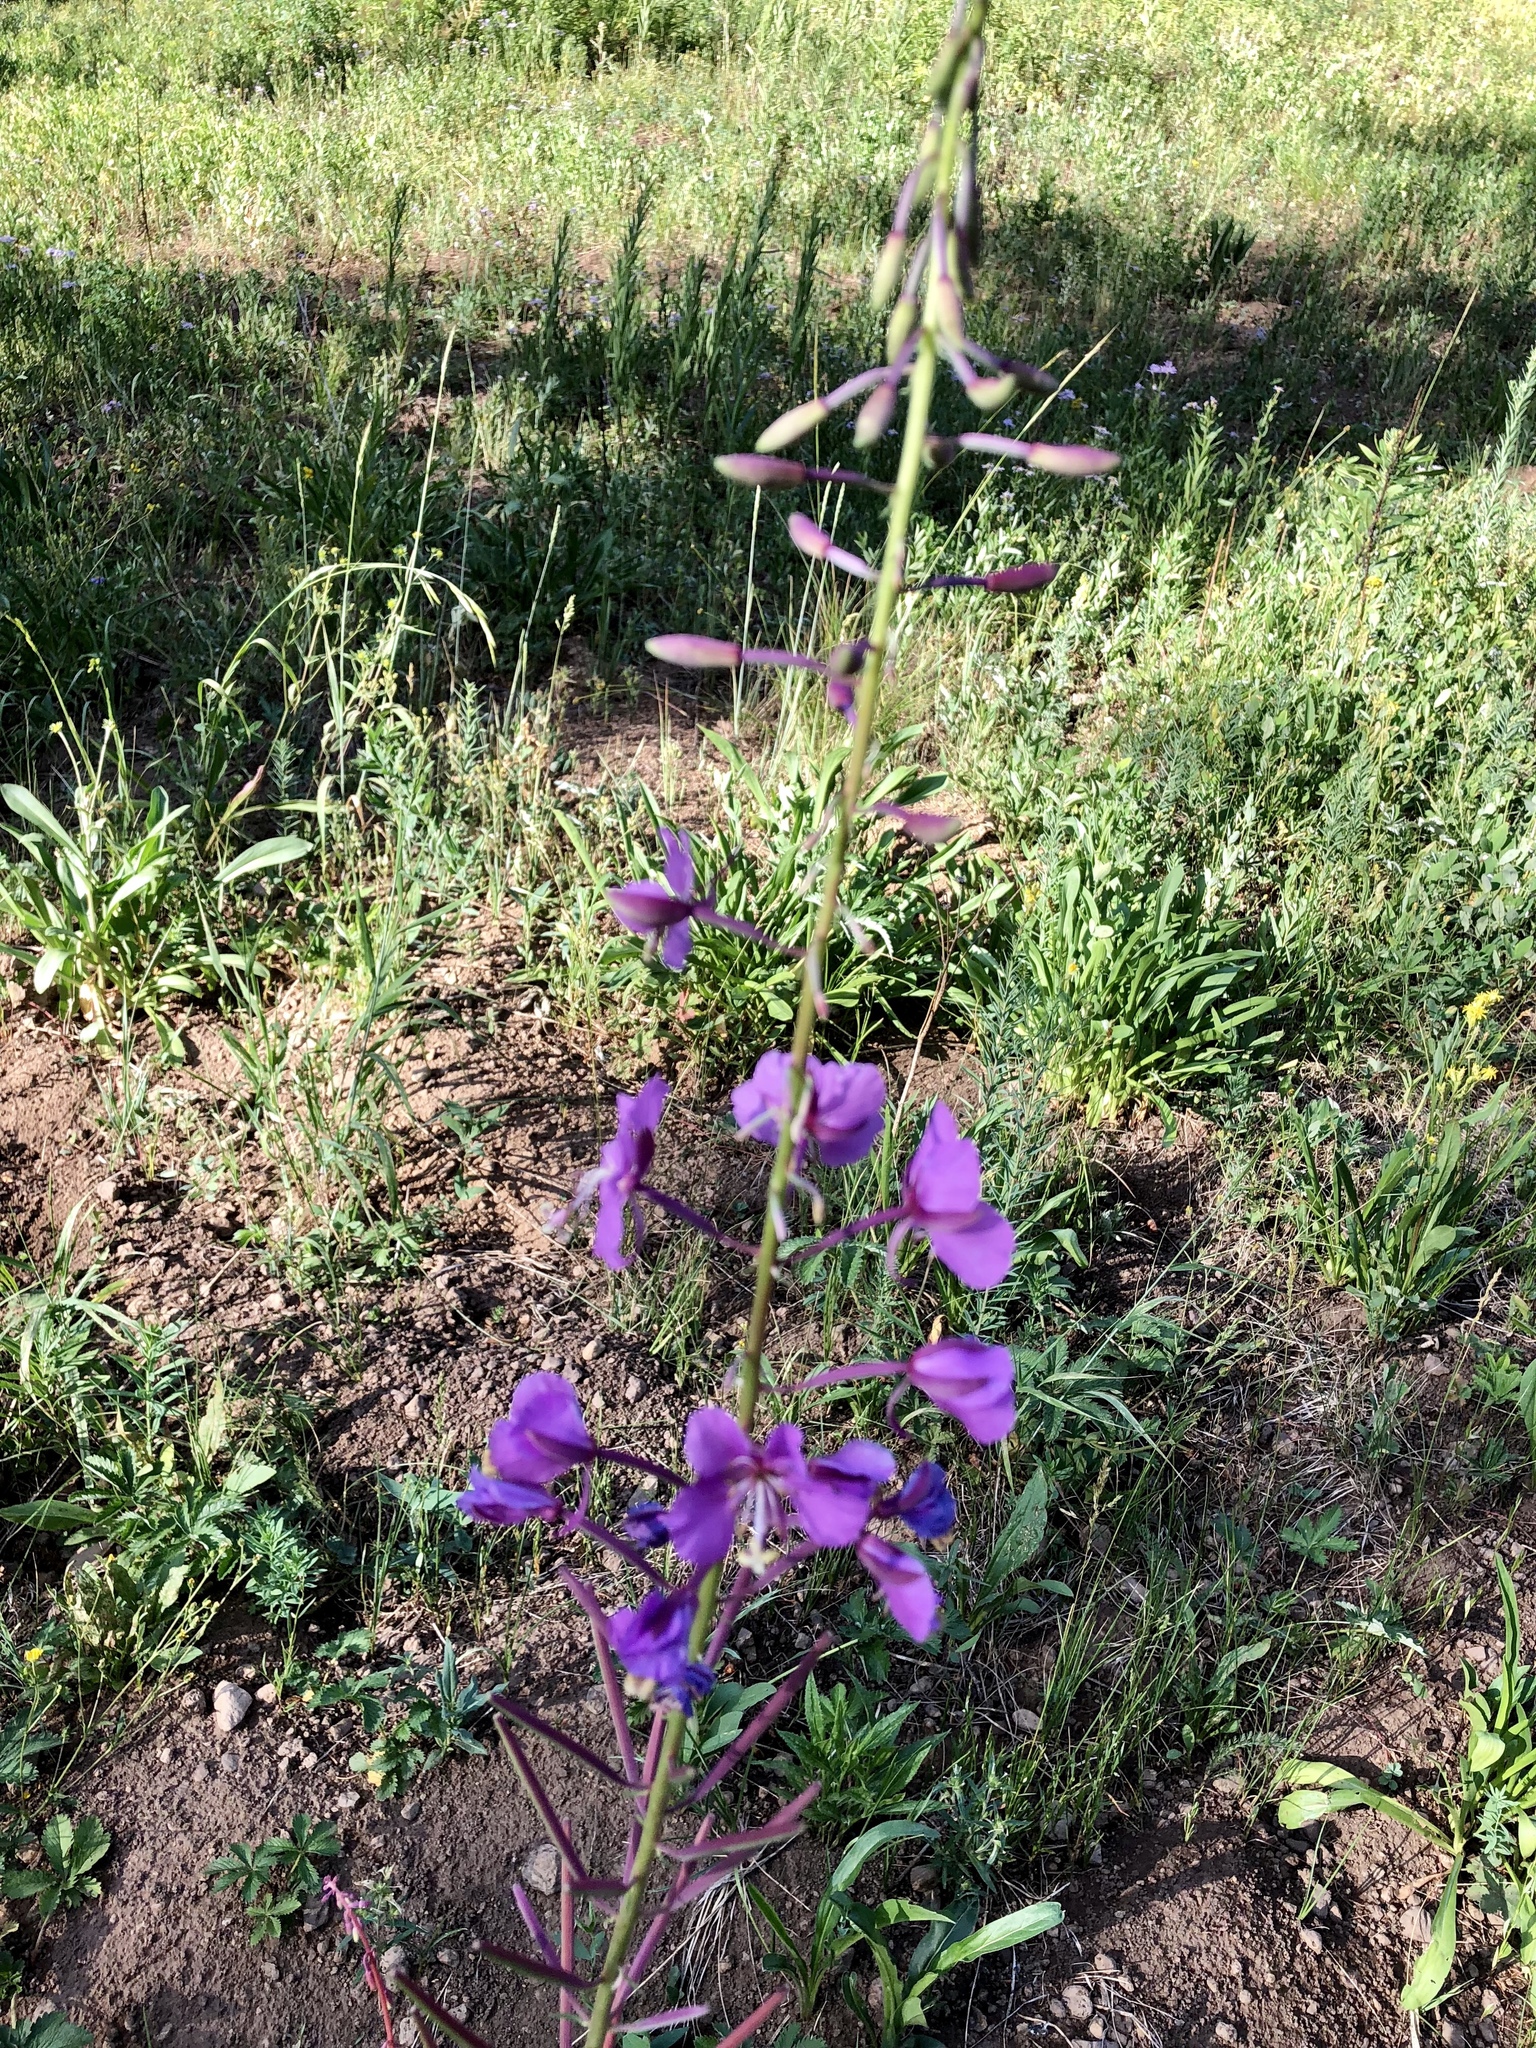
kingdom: Plantae
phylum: Tracheophyta
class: Magnoliopsida
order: Myrtales
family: Onagraceae
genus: Chamaenerion
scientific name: Chamaenerion angustifolium
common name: Fireweed
